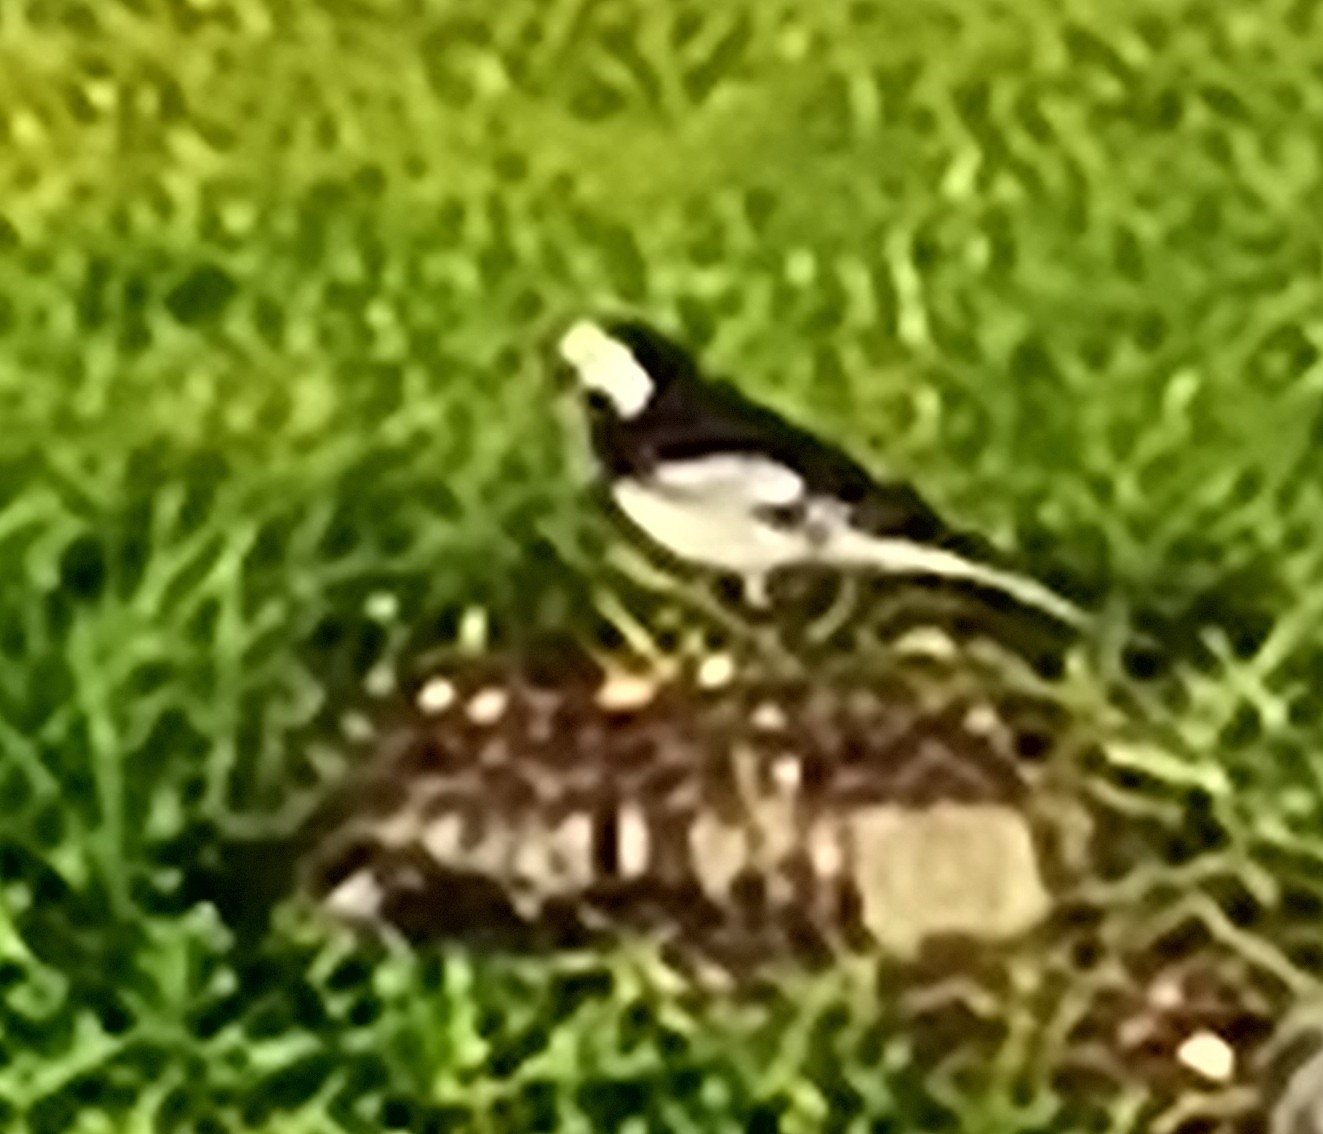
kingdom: Animalia
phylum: Chordata
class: Aves
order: Passeriformes
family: Motacillidae
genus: Motacilla
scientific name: Motacilla alba
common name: White wagtail
